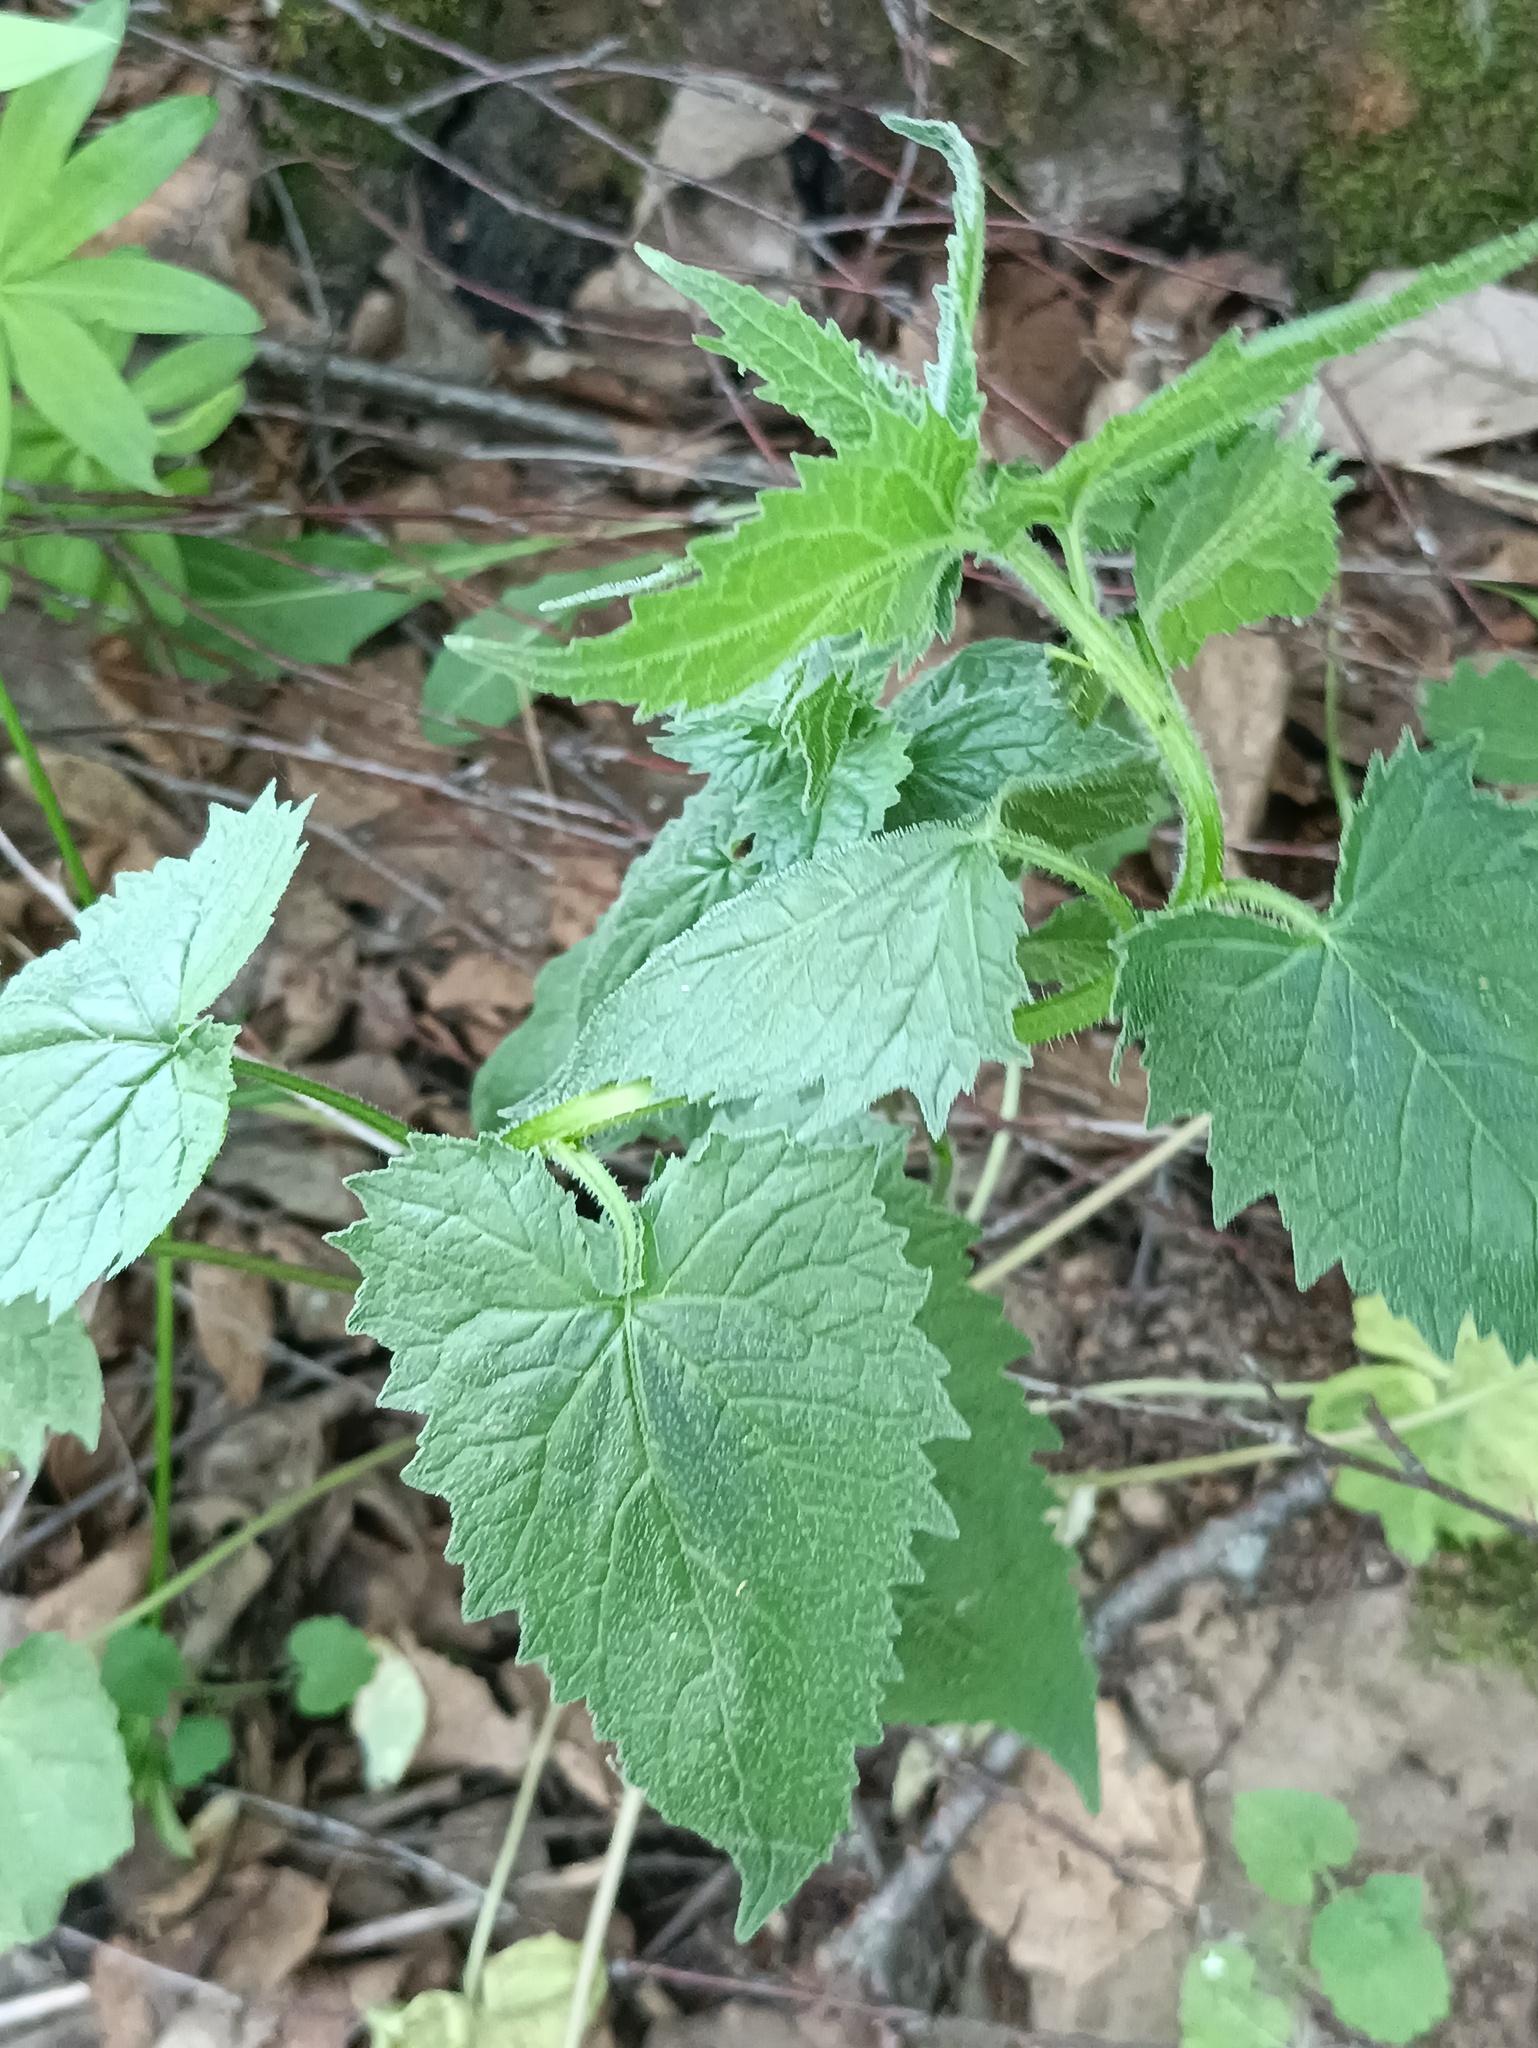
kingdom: Plantae
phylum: Tracheophyta
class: Magnoliopsida
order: Asterales
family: Campanulaceae
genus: Campanula
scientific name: Campanula trachelium
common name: Nettle-leaved bellflower
